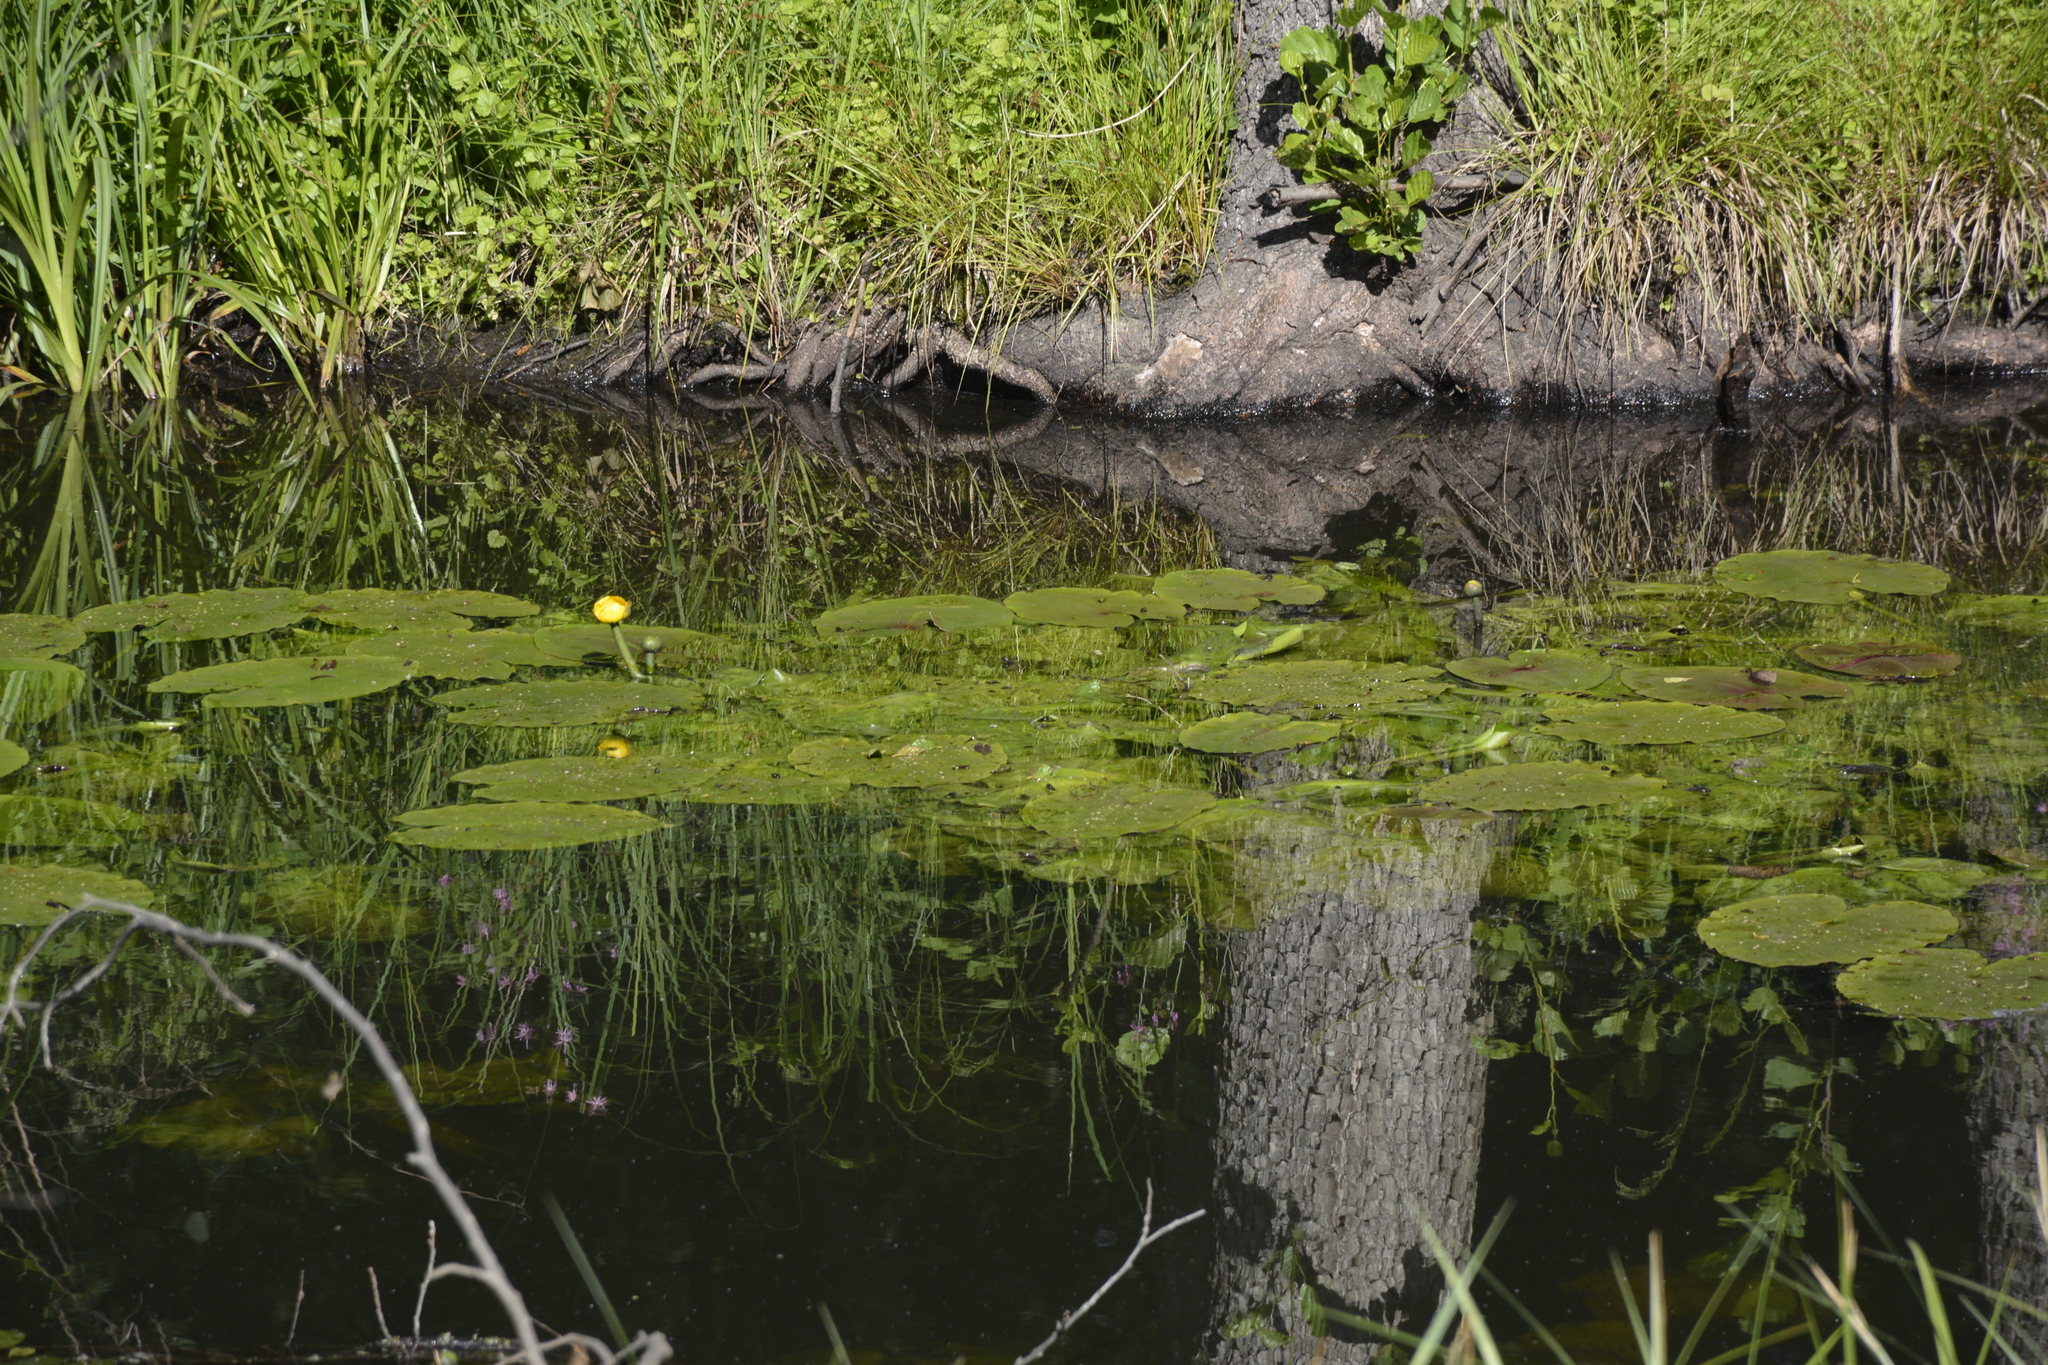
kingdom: Plantae
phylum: Tracheophyta
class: Magnoliopsida
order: Nymphaeales
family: Nymphaeaceae
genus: Nuphar
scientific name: Nuphar lutea
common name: Yellow water-lily
